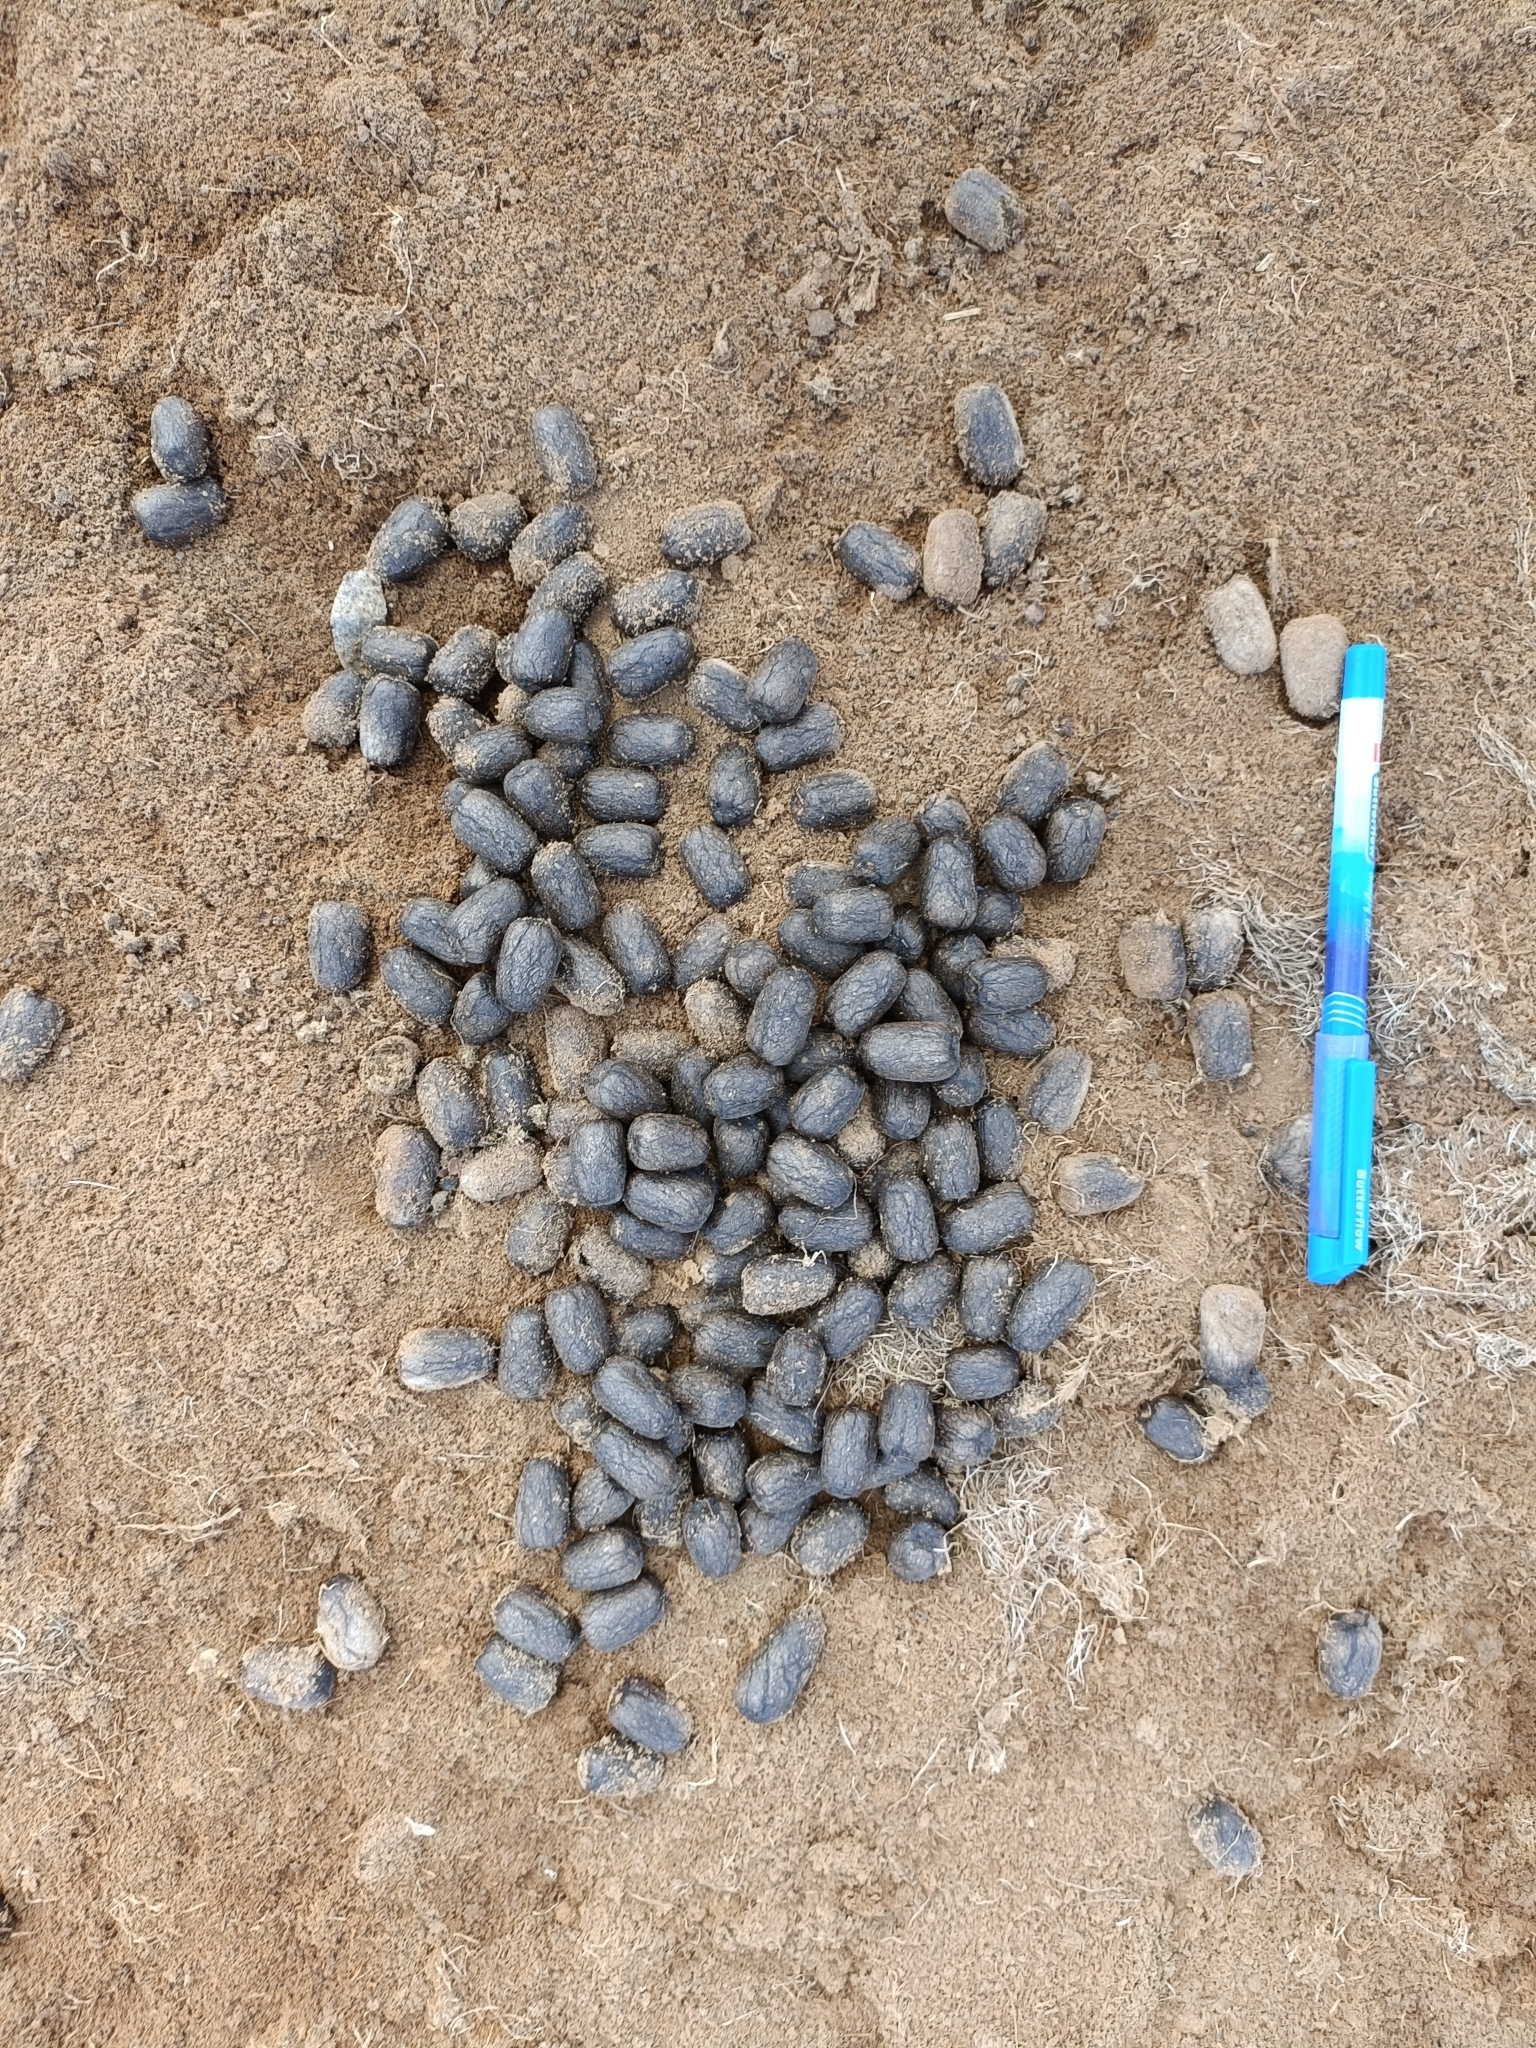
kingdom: Animalia
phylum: Chordata
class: Mammalia
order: Artiodactyla
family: Bovidae
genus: Boselaphus
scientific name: Boselaphus tragocamelus
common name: Nilgai
